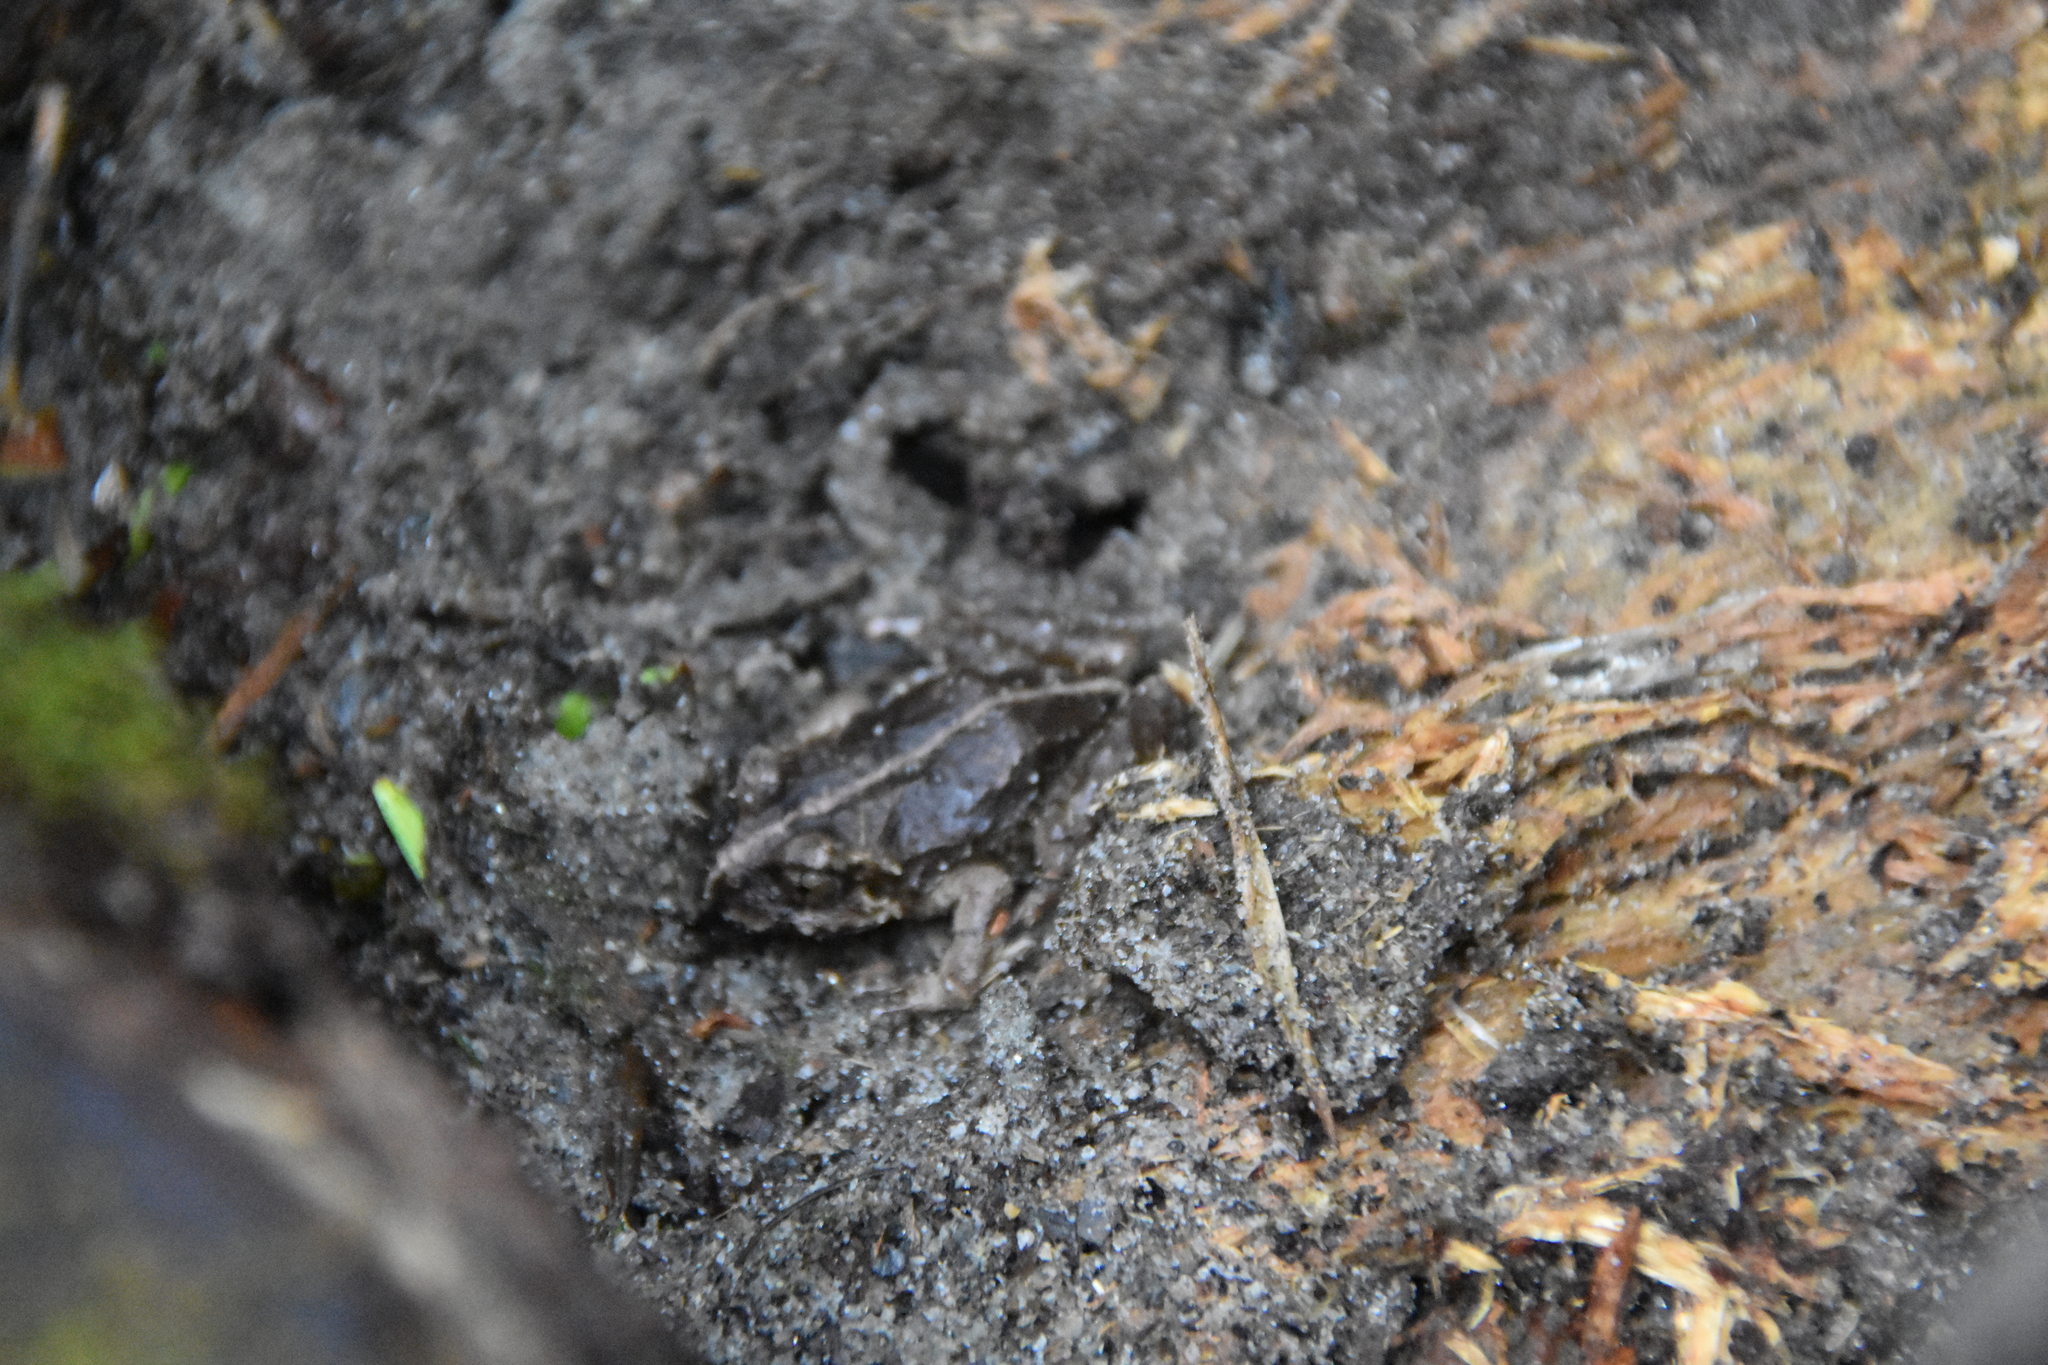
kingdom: Animalia
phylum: Chordata
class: Amphibia
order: Anura
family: Alsodidae
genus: Eupsophus
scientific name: Eupsophus vertebralis
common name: Valdivia ground frog
